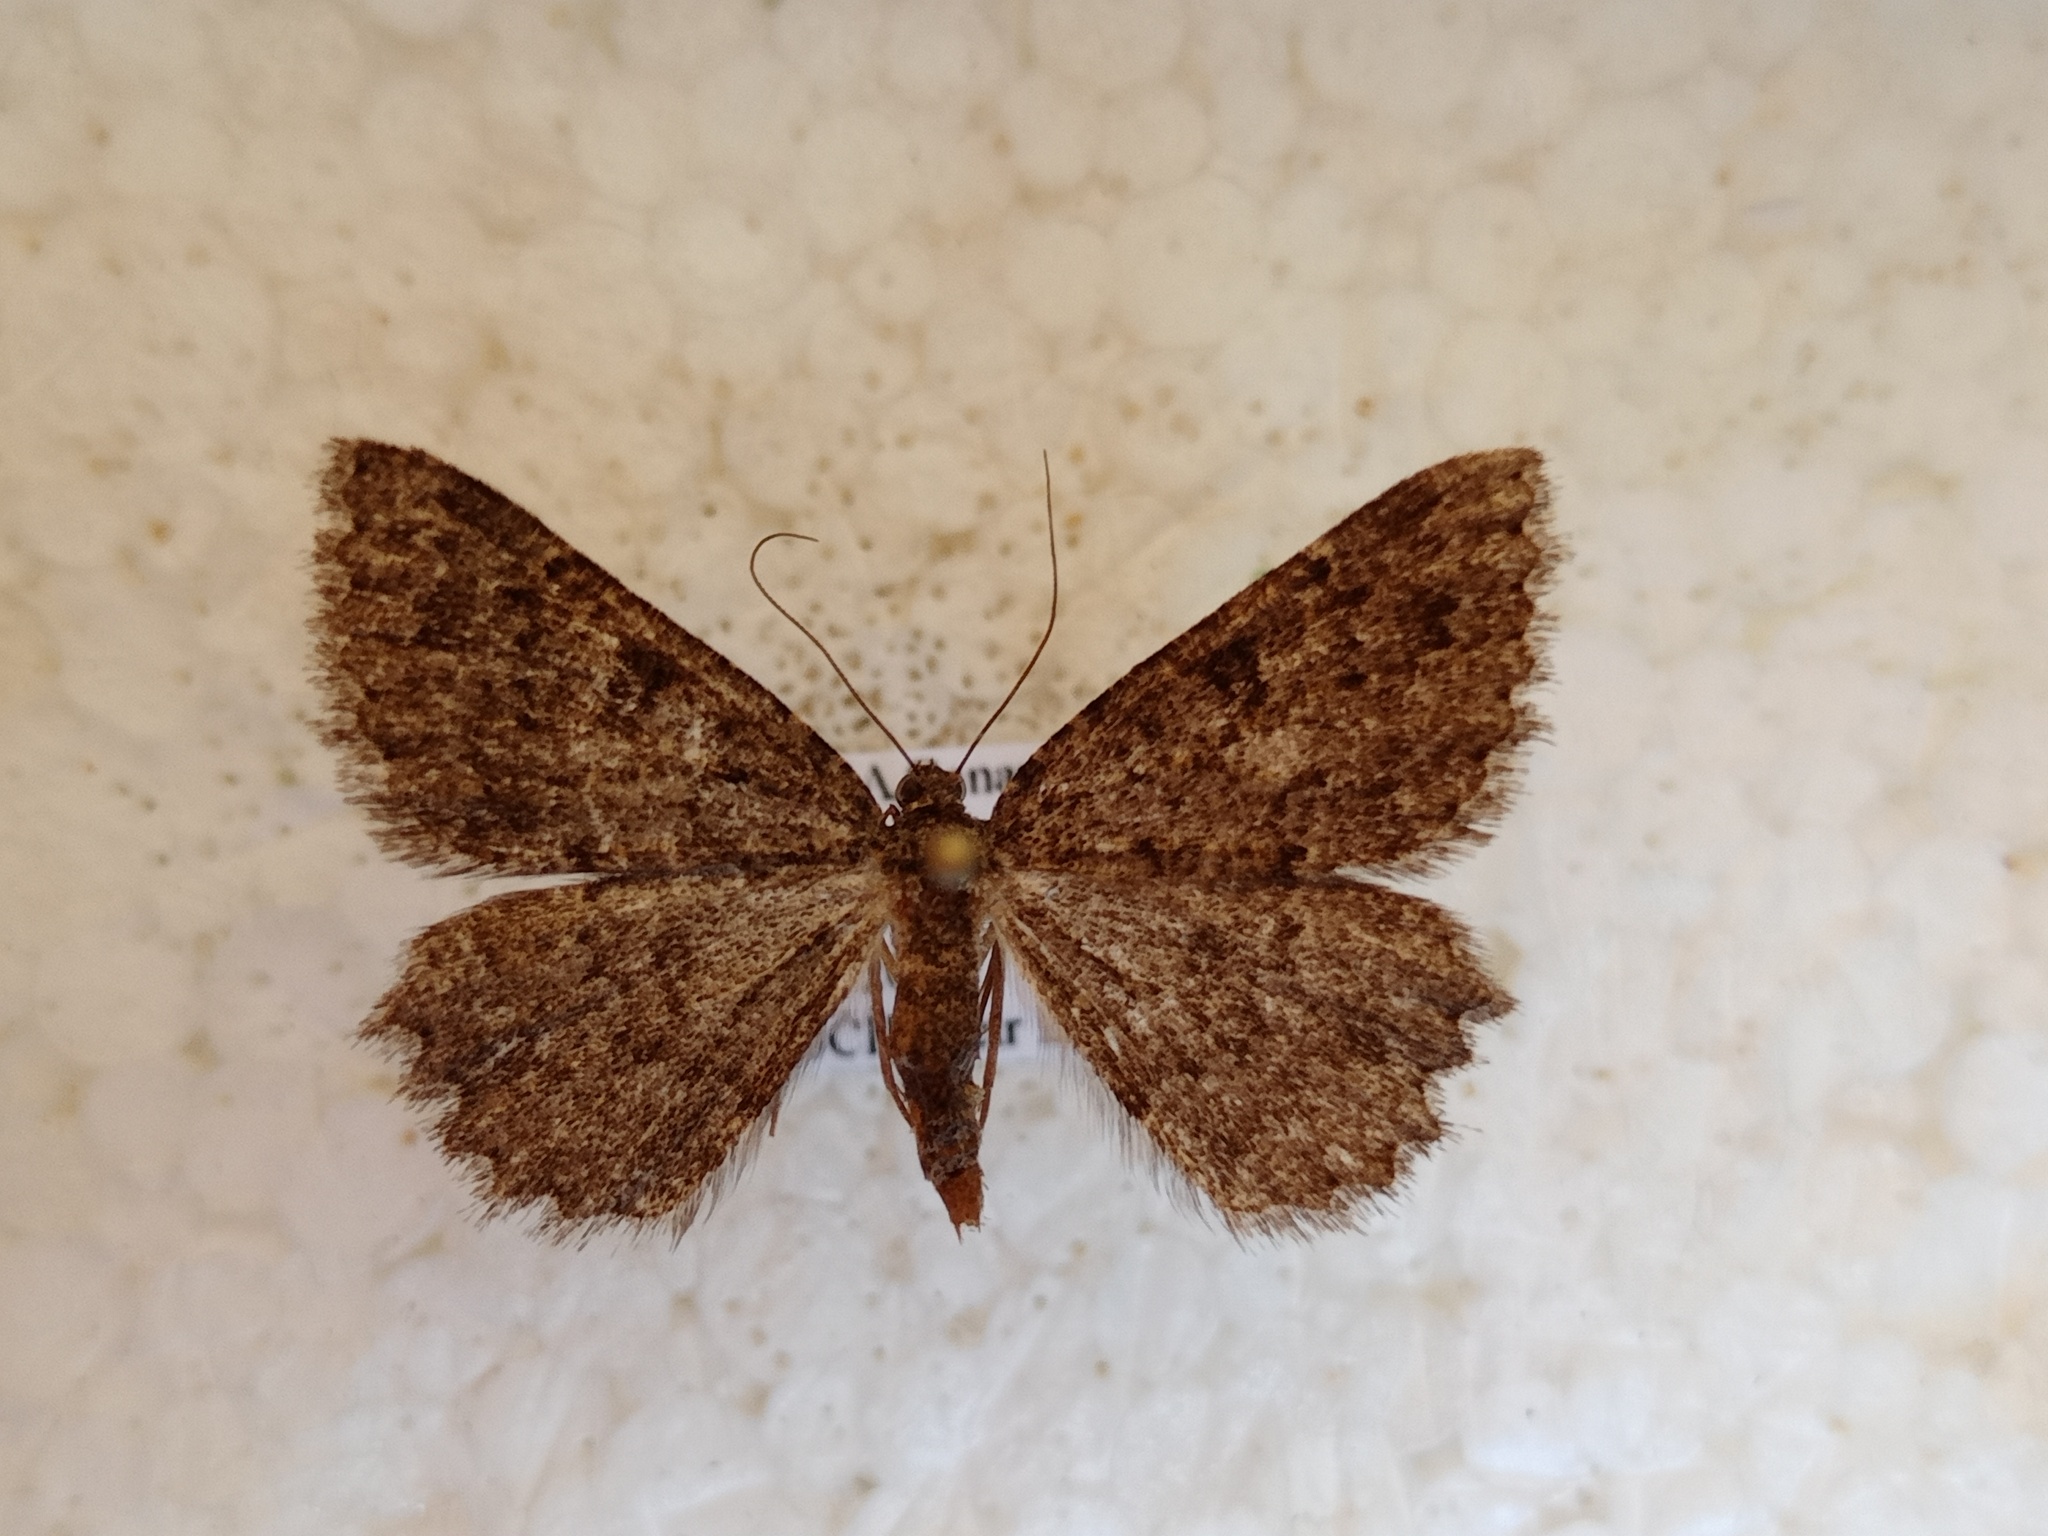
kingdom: Animalia
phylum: Arthropoda
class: Insecta
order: Lepidoptera
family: Geometridae
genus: Gnophos
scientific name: Gnophos canariensis
